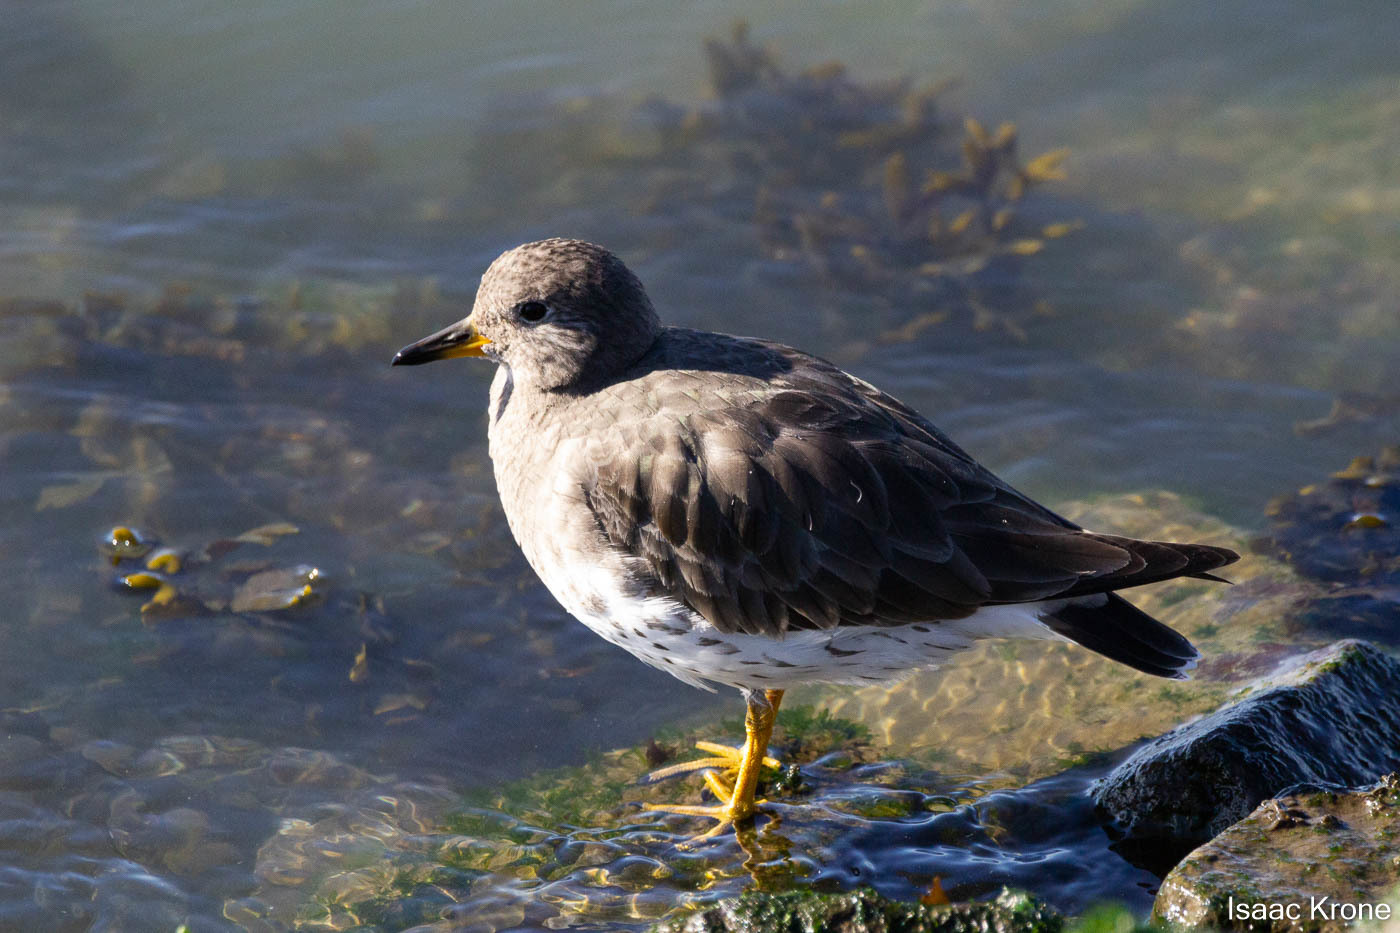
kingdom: Animalia
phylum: Chordata
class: Aves
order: Charadriiformes
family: Scolopacidae
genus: Calidris
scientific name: Calidris virgata
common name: Surfbird
